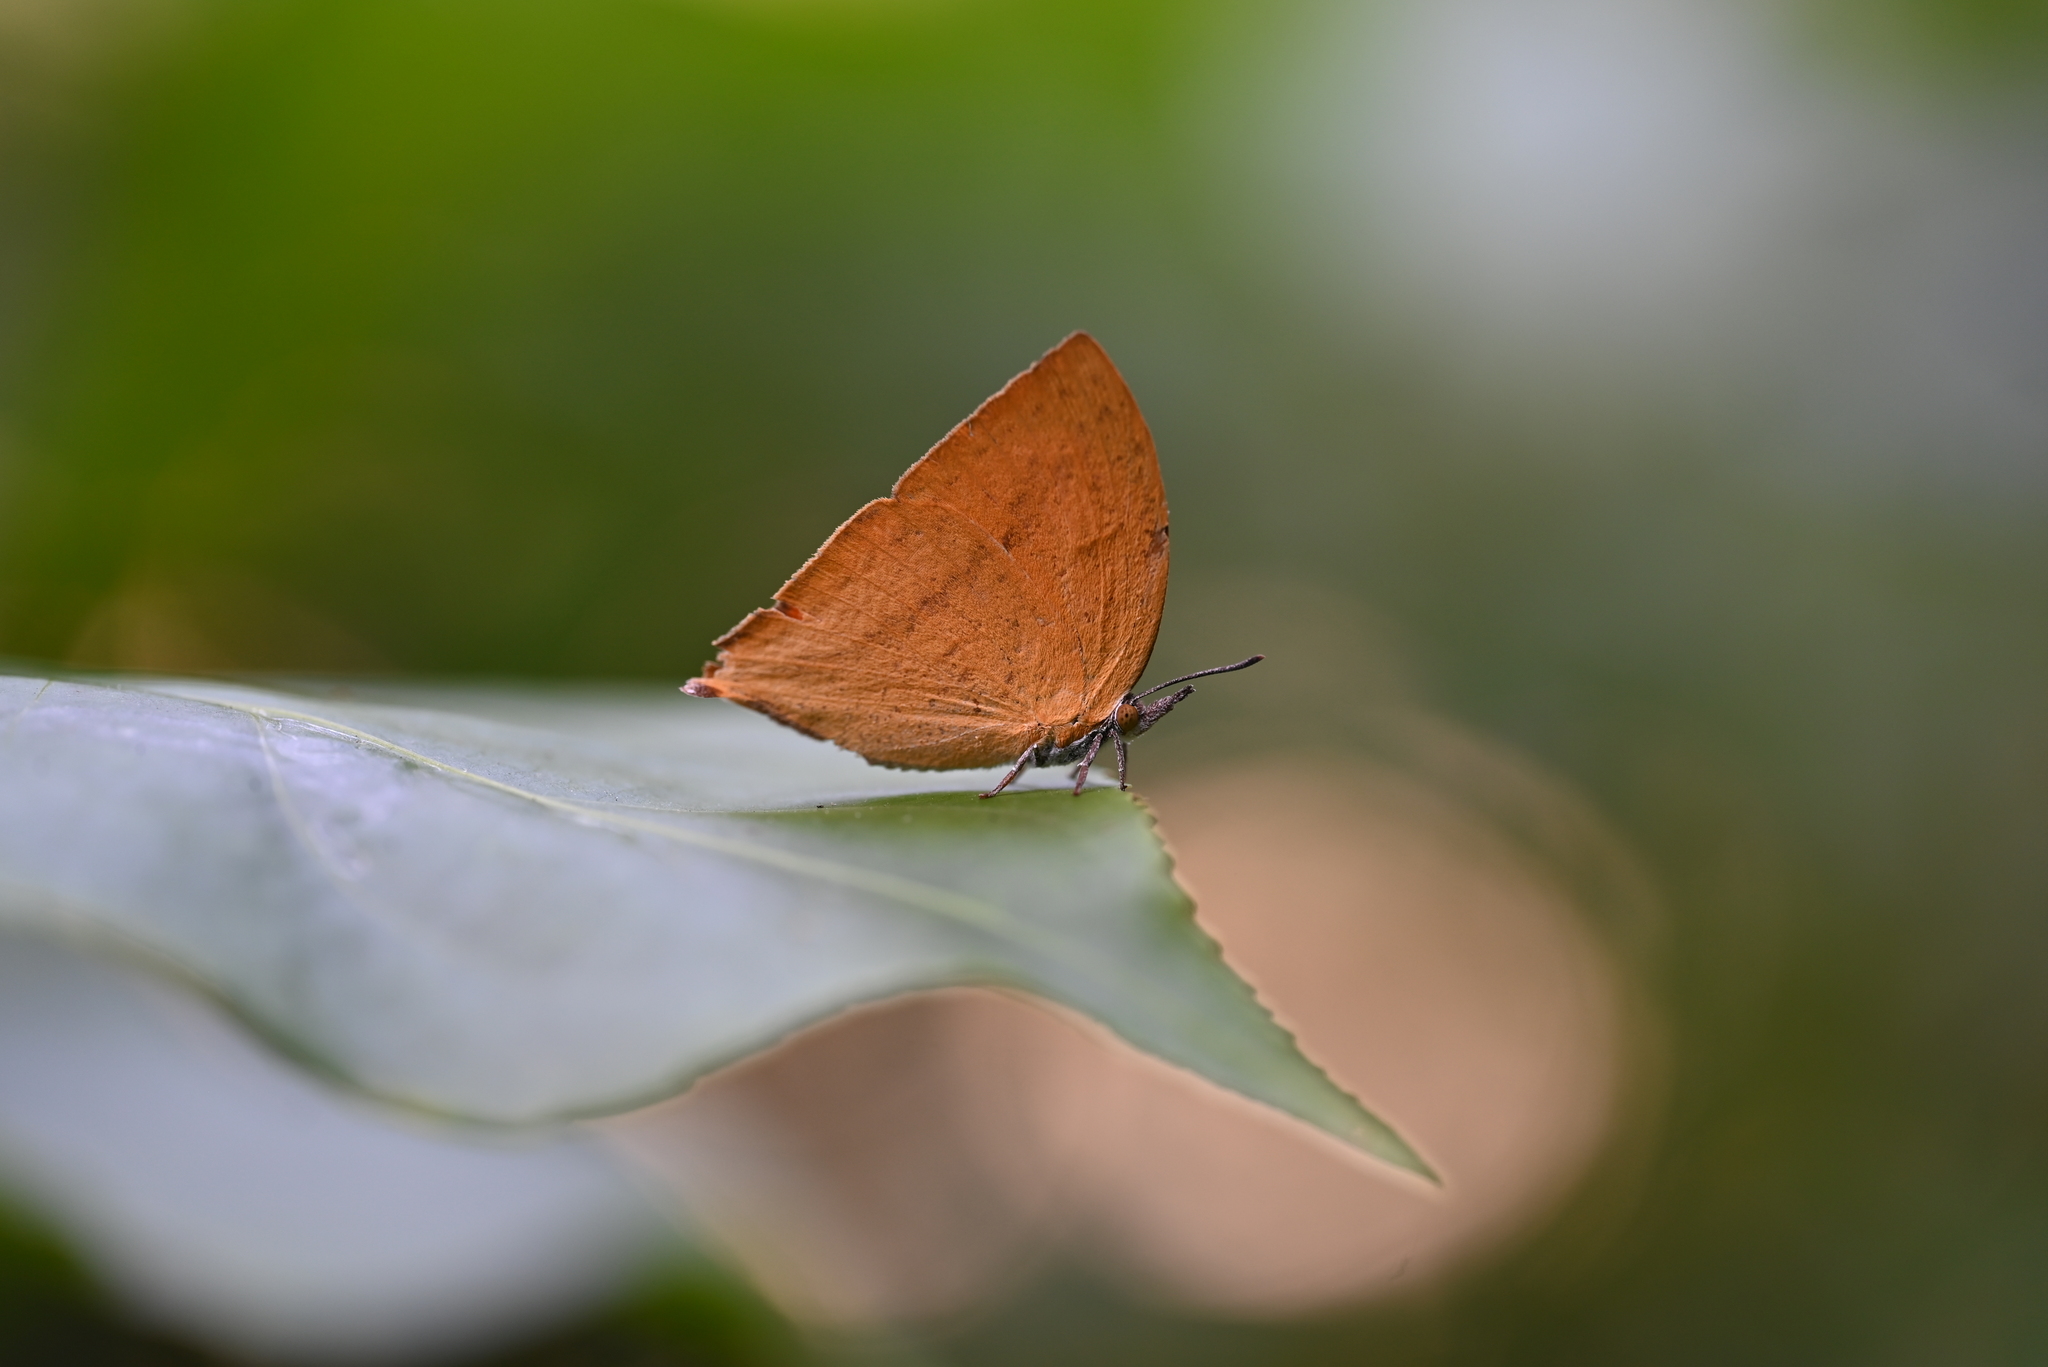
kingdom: Animalia
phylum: Arthropoda
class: Insecta
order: Lepidoptera
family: Lycaenidae
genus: Loxura
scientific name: Loxura atymnus
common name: Common yamfly
